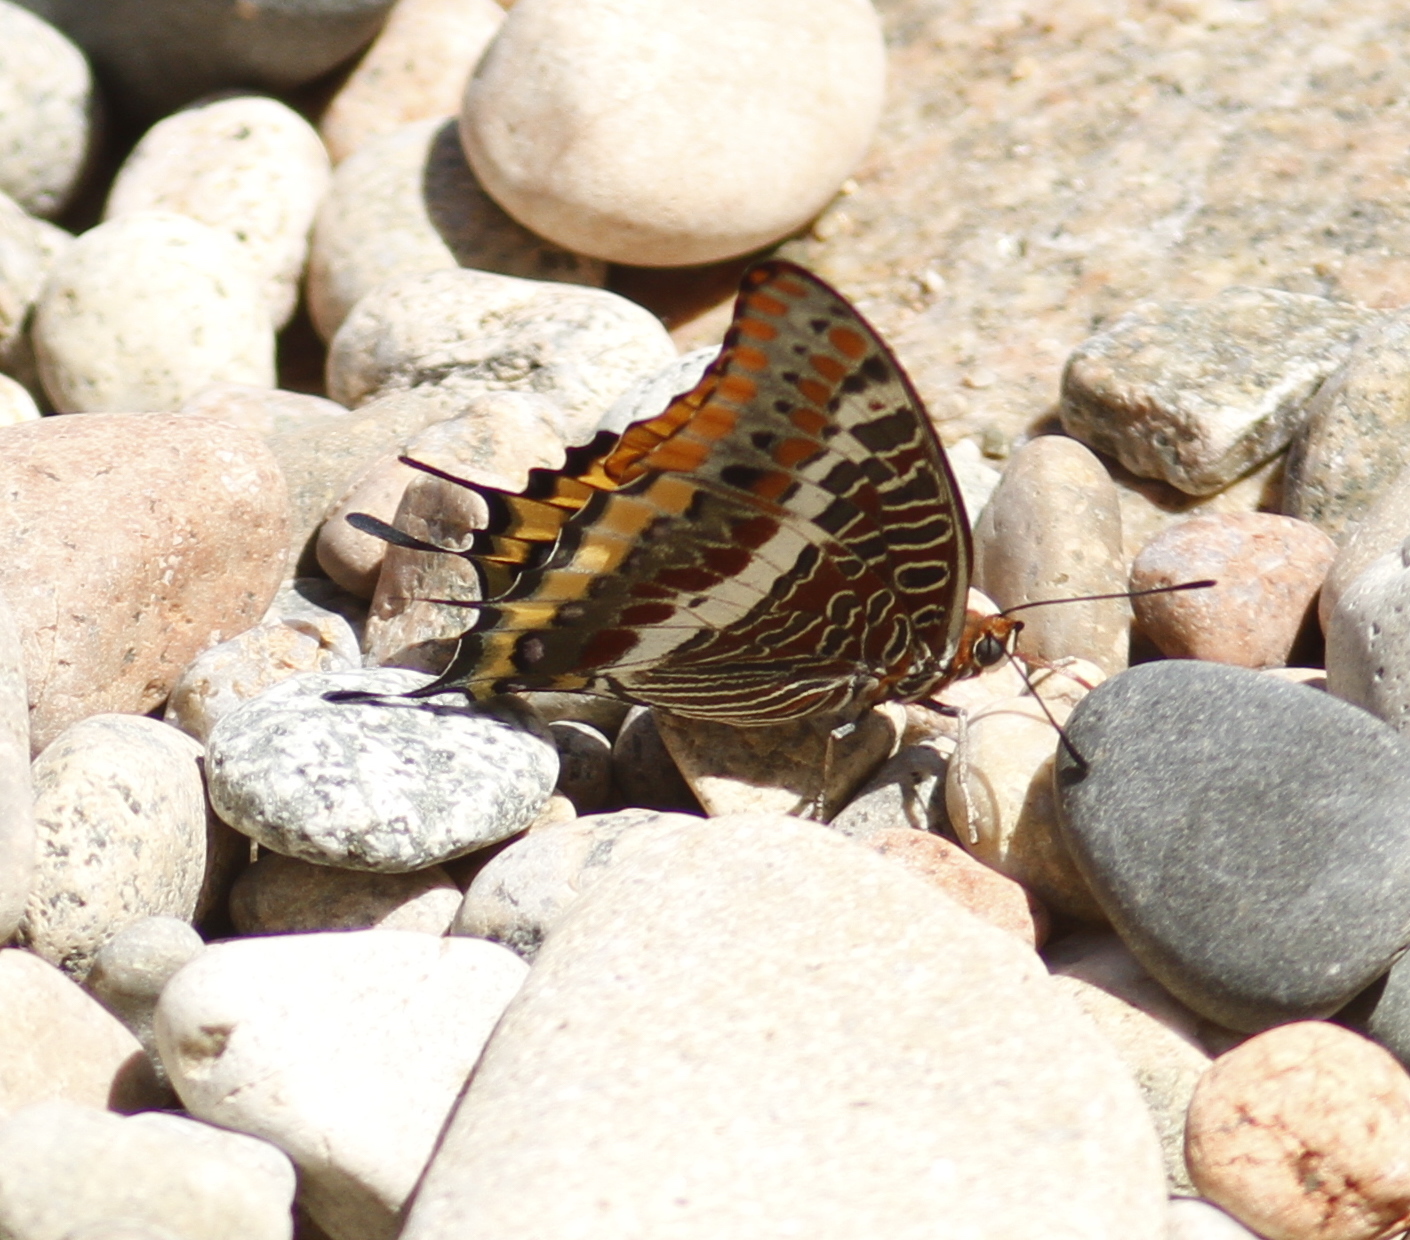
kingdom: Animalia
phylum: Arthropoda
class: Insecta
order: Lepidoptera
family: Nymphalidae
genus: Charaxes
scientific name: Charaxes jasius
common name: Two tailed pasha
